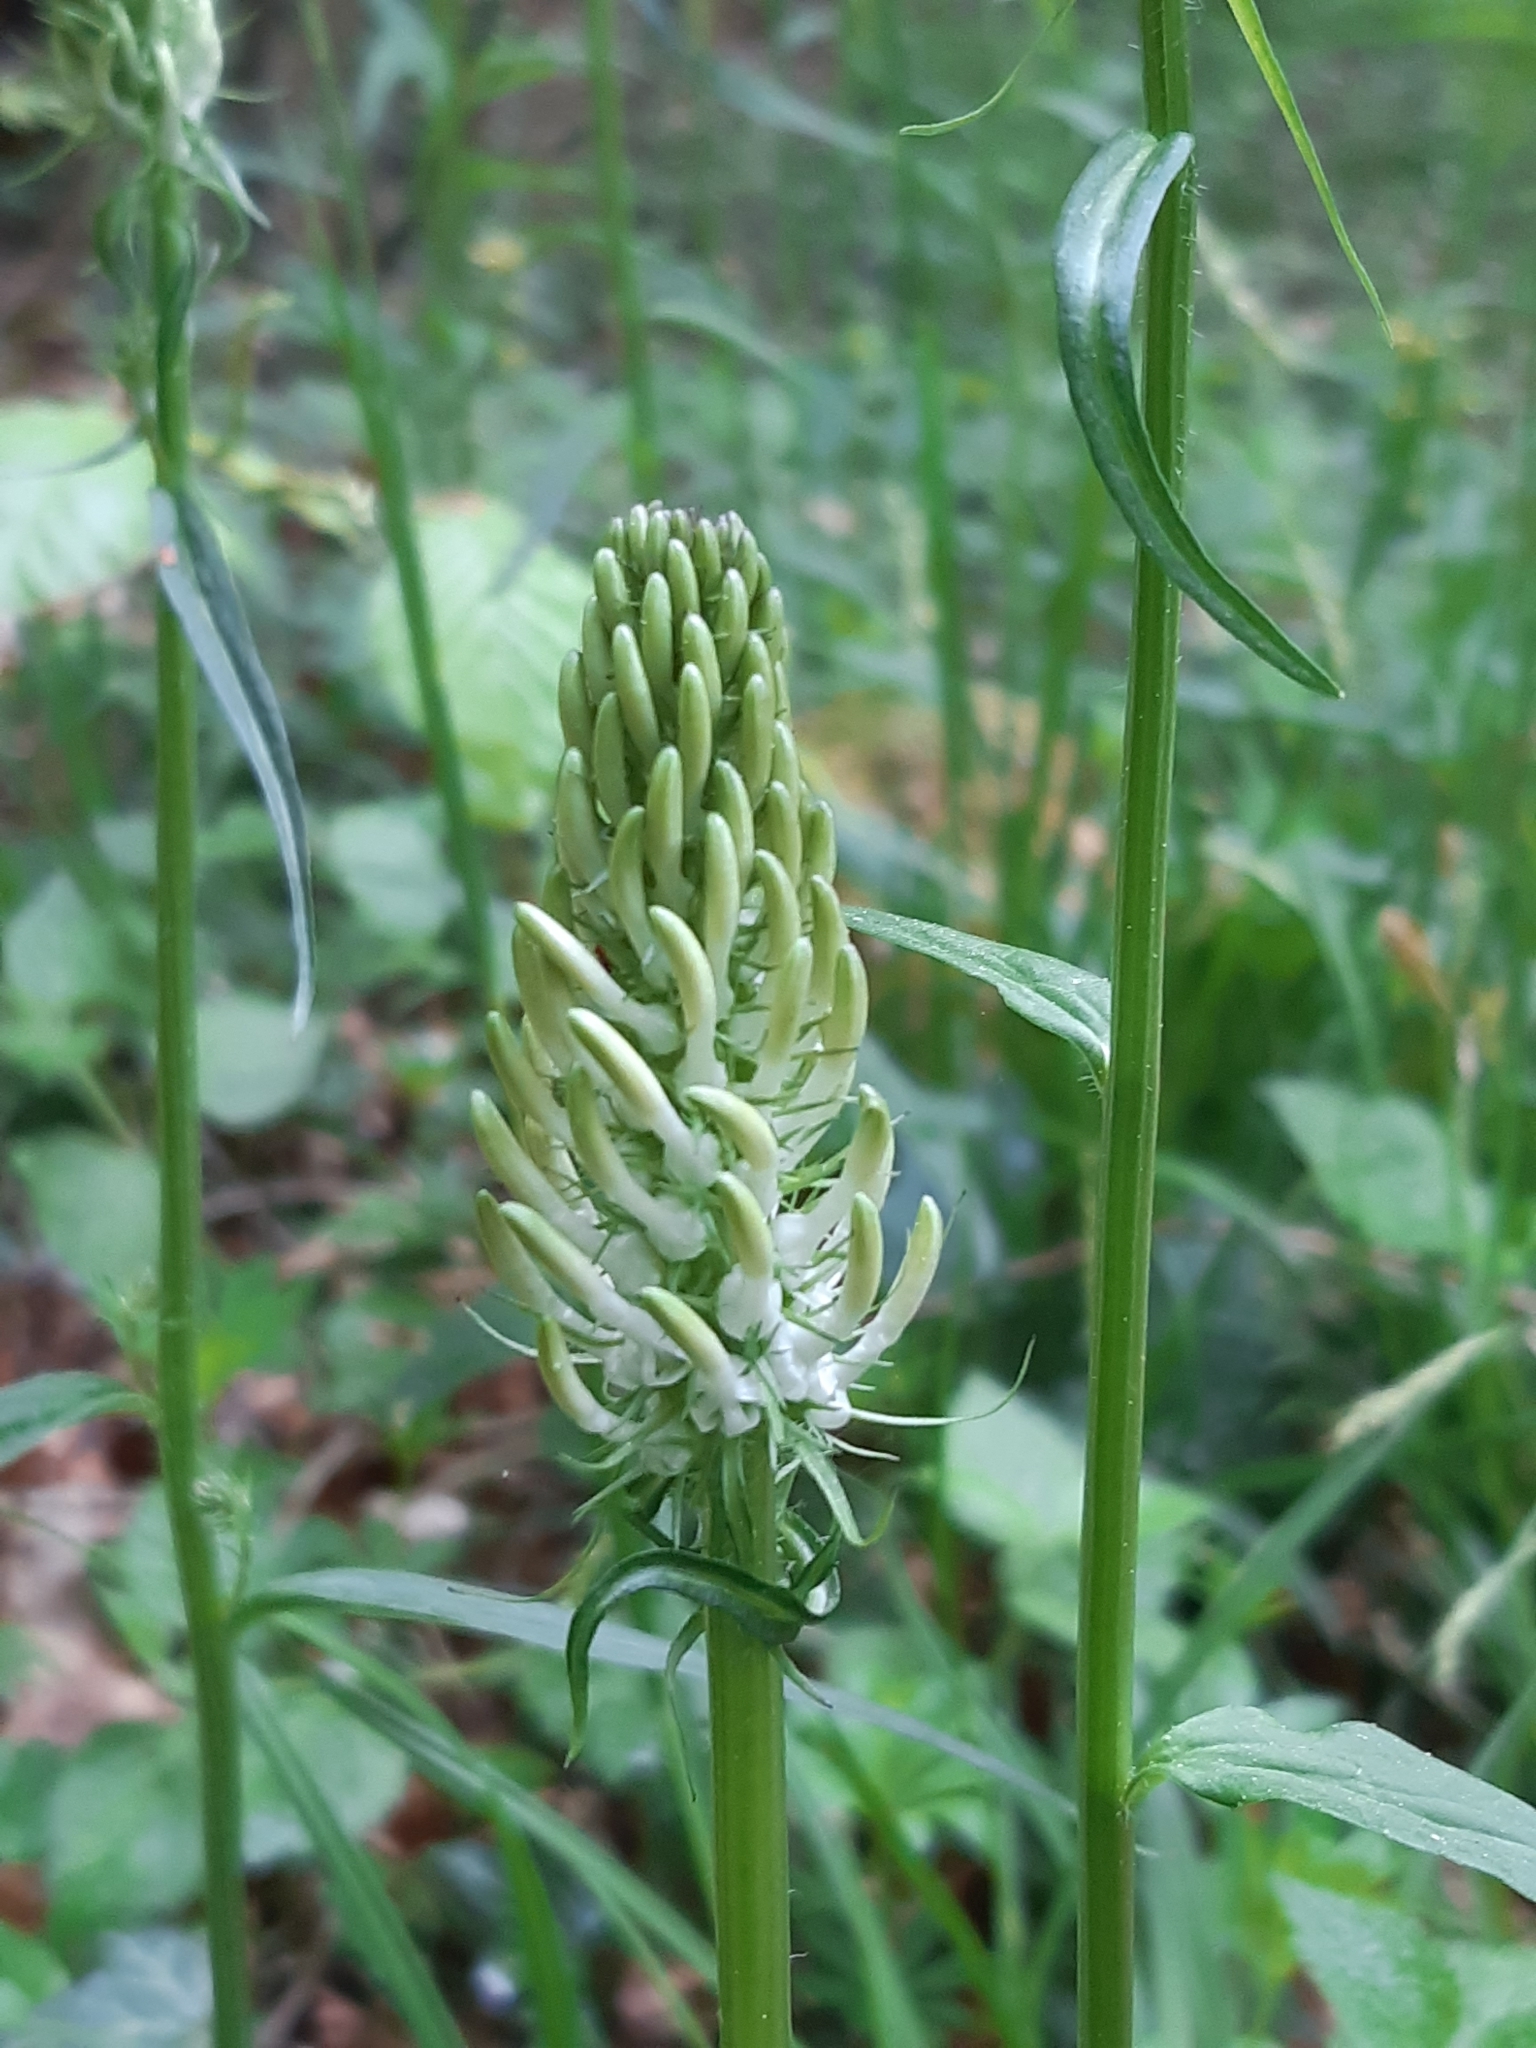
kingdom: Plantae
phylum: Tracheophyta
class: Magnoliopsida
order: Asterales
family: Campanulaceae
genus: Phyteuma
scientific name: Phyteuma spicatum
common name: Spiked rampion
